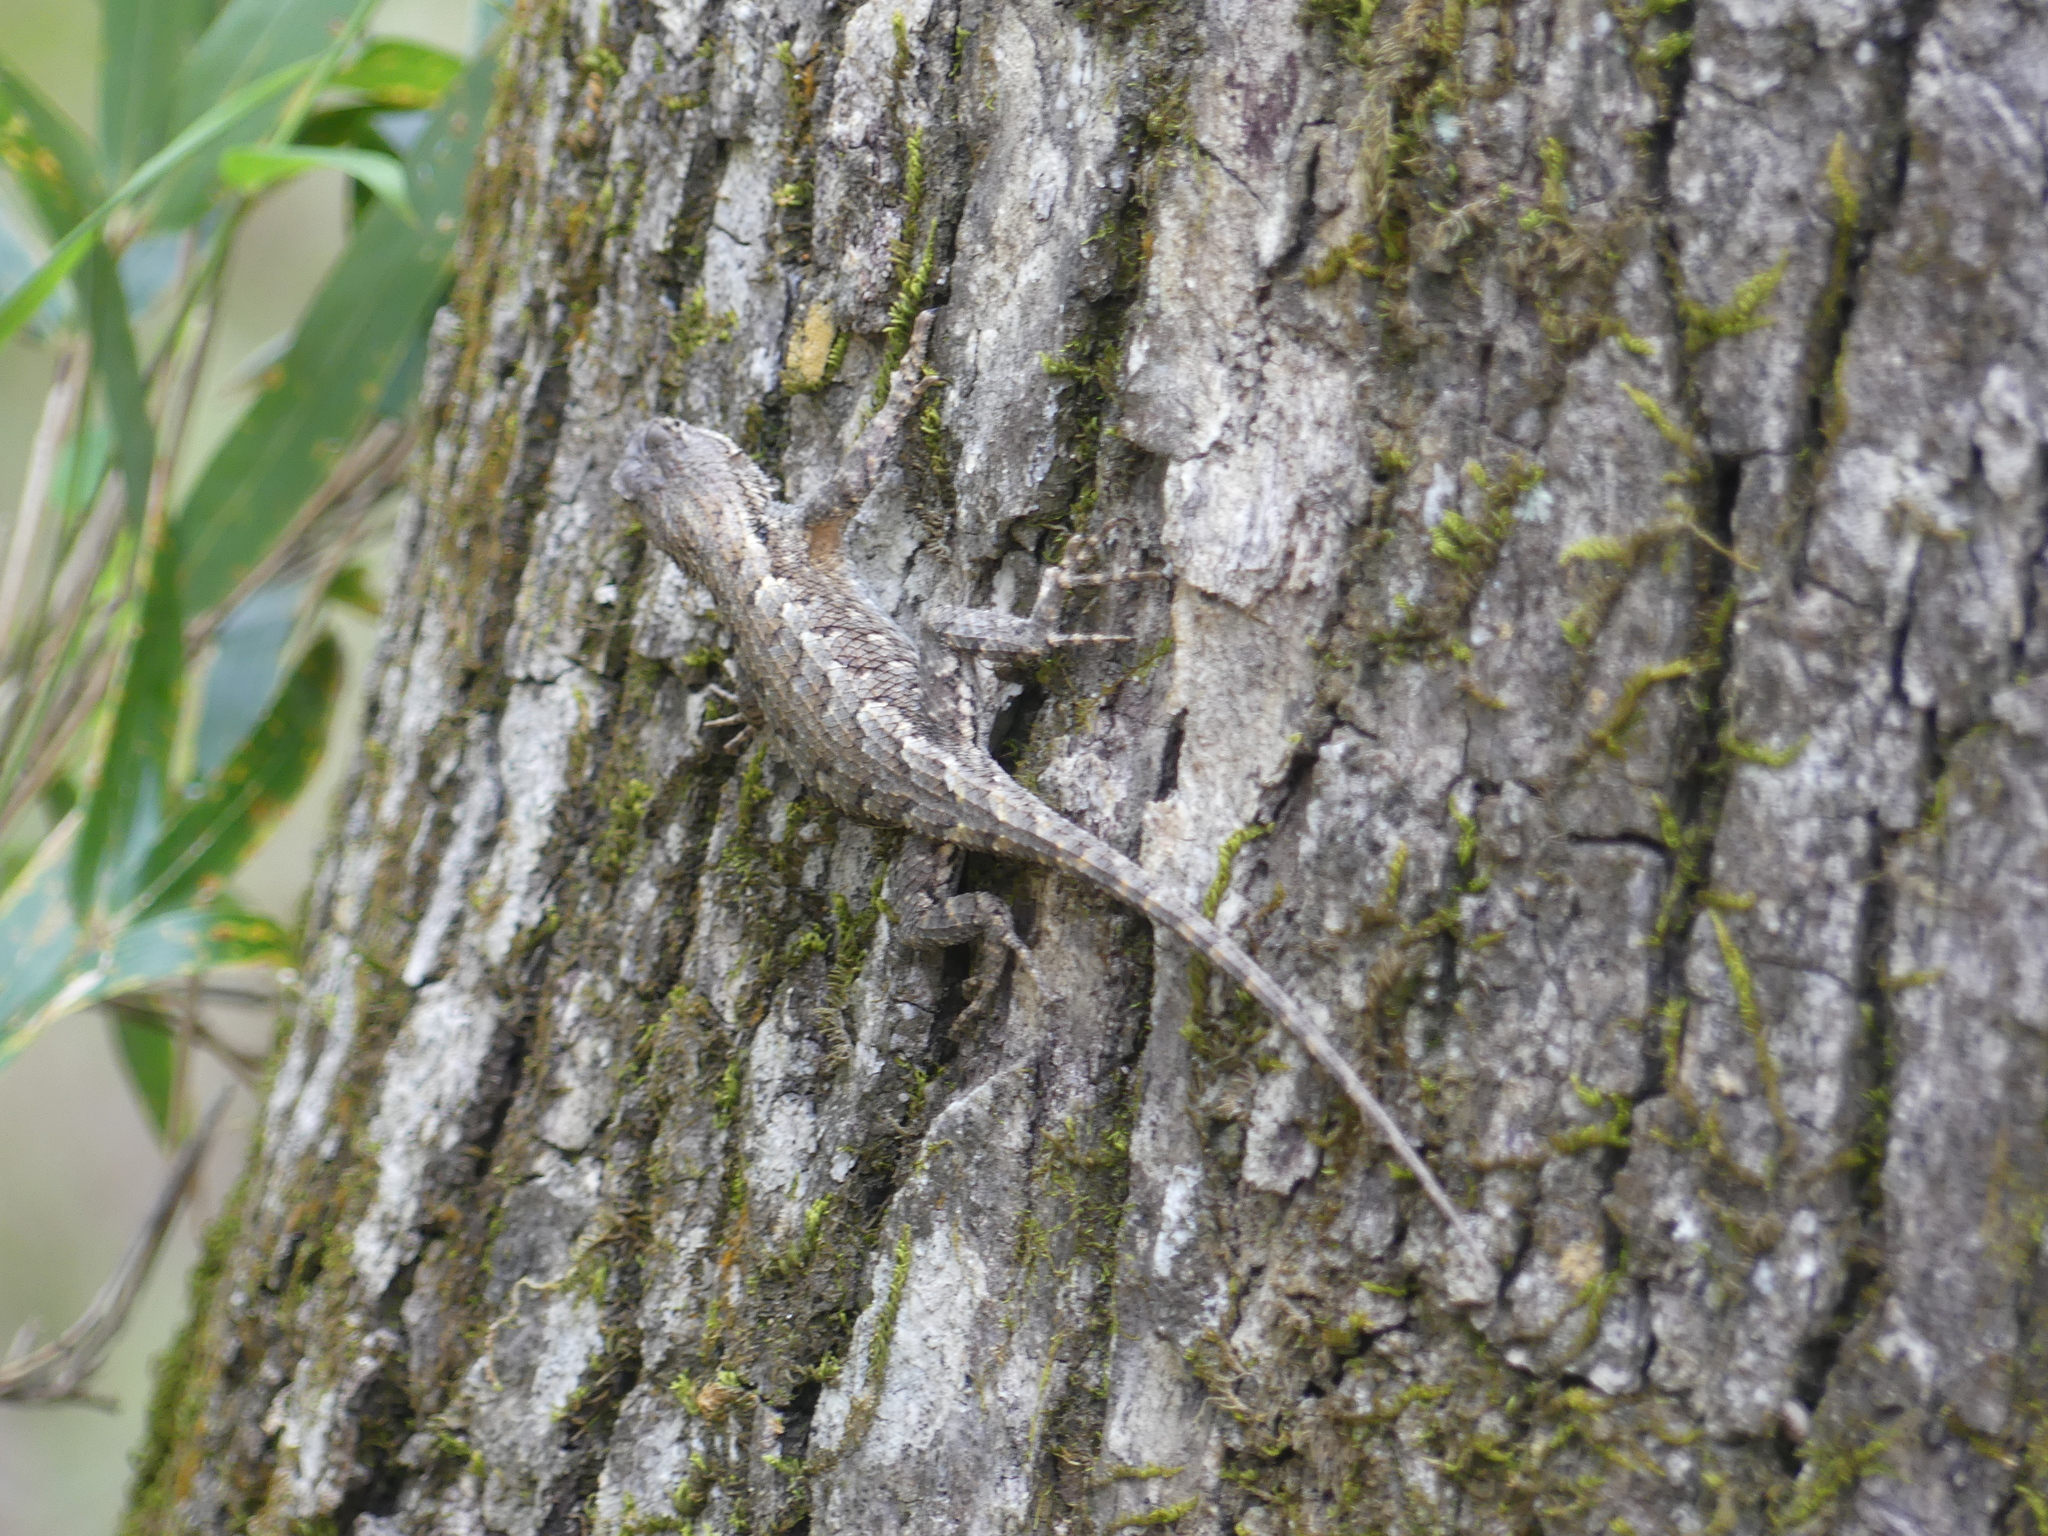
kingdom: Animalia
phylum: Chordata
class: Squamata
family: Phrynosomatidae
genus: Sceloporus
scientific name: Sceloporus consobrinus
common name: Southern prairie lizard
